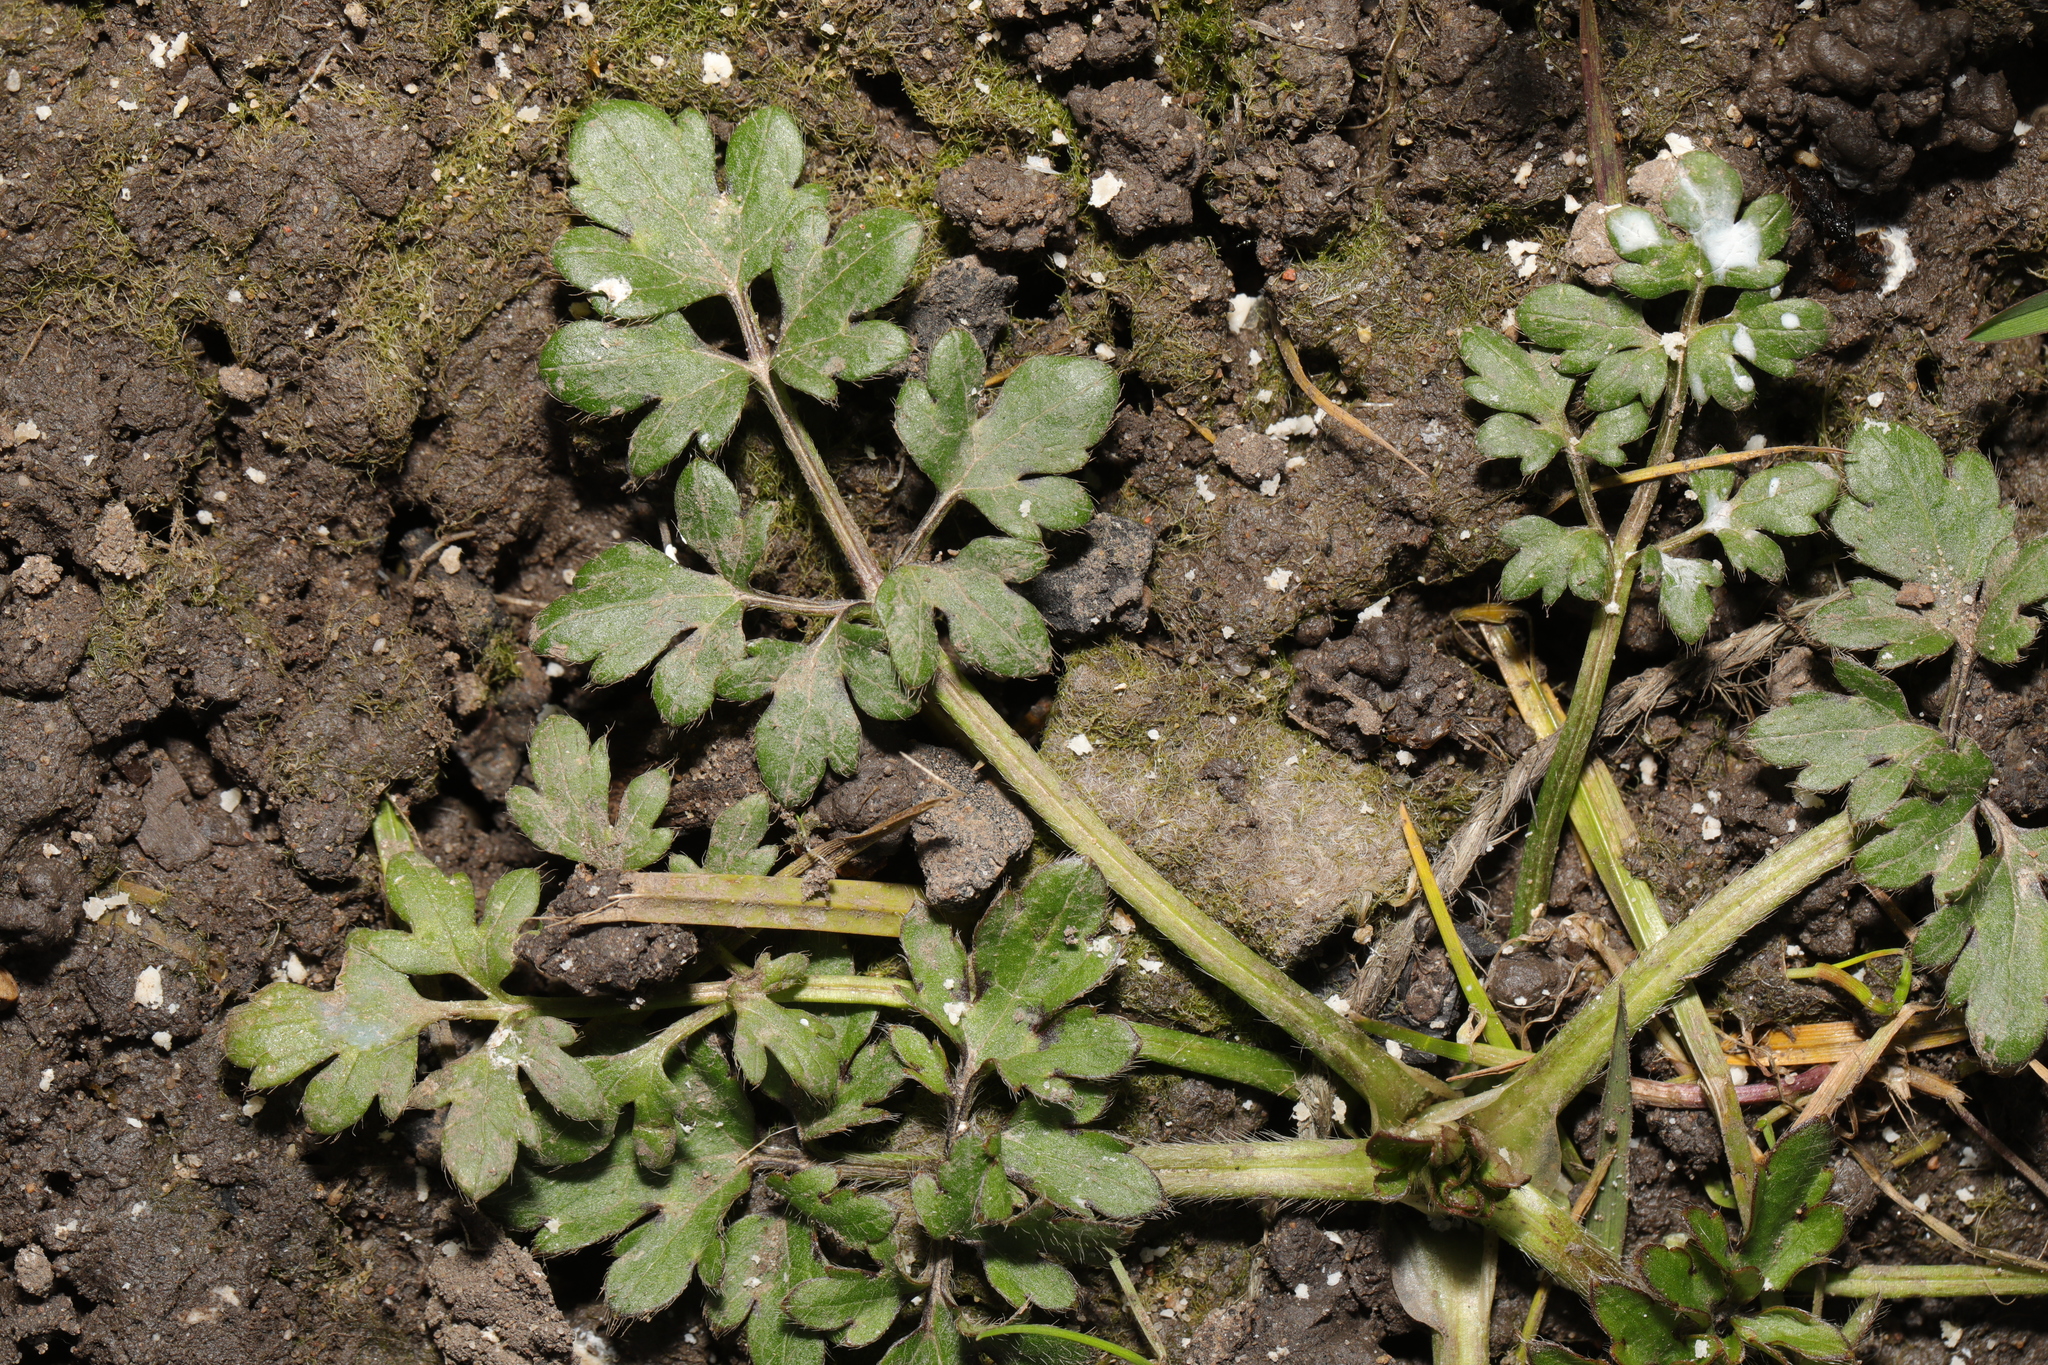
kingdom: Plantae
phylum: Tracheophyta
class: Magnoliopsida
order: Ranunculales
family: Ranunculaceae
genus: Ranunculus
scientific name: Ranunculus repens
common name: Creeping buttercup
